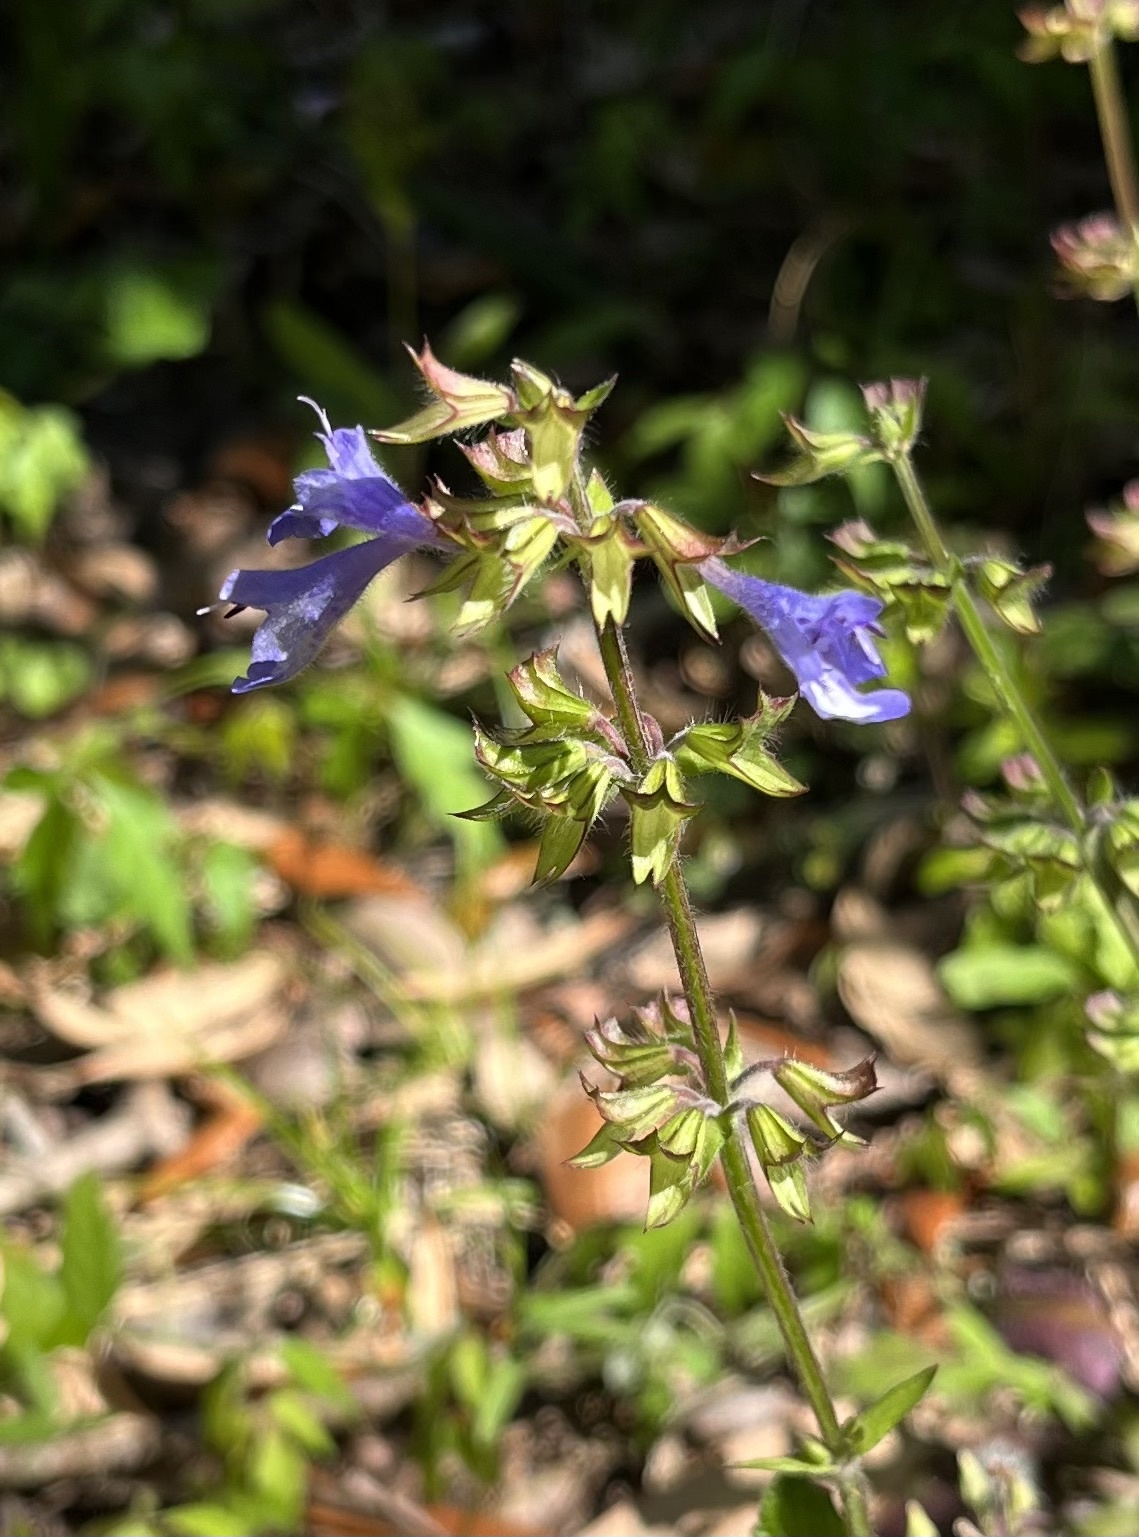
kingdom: Plantae
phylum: Tracheophyta
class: Magnoliopsida
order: Lamiales
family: Lamiaceae
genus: Salvia
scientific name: Salvia lyrata
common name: Cancerweed
